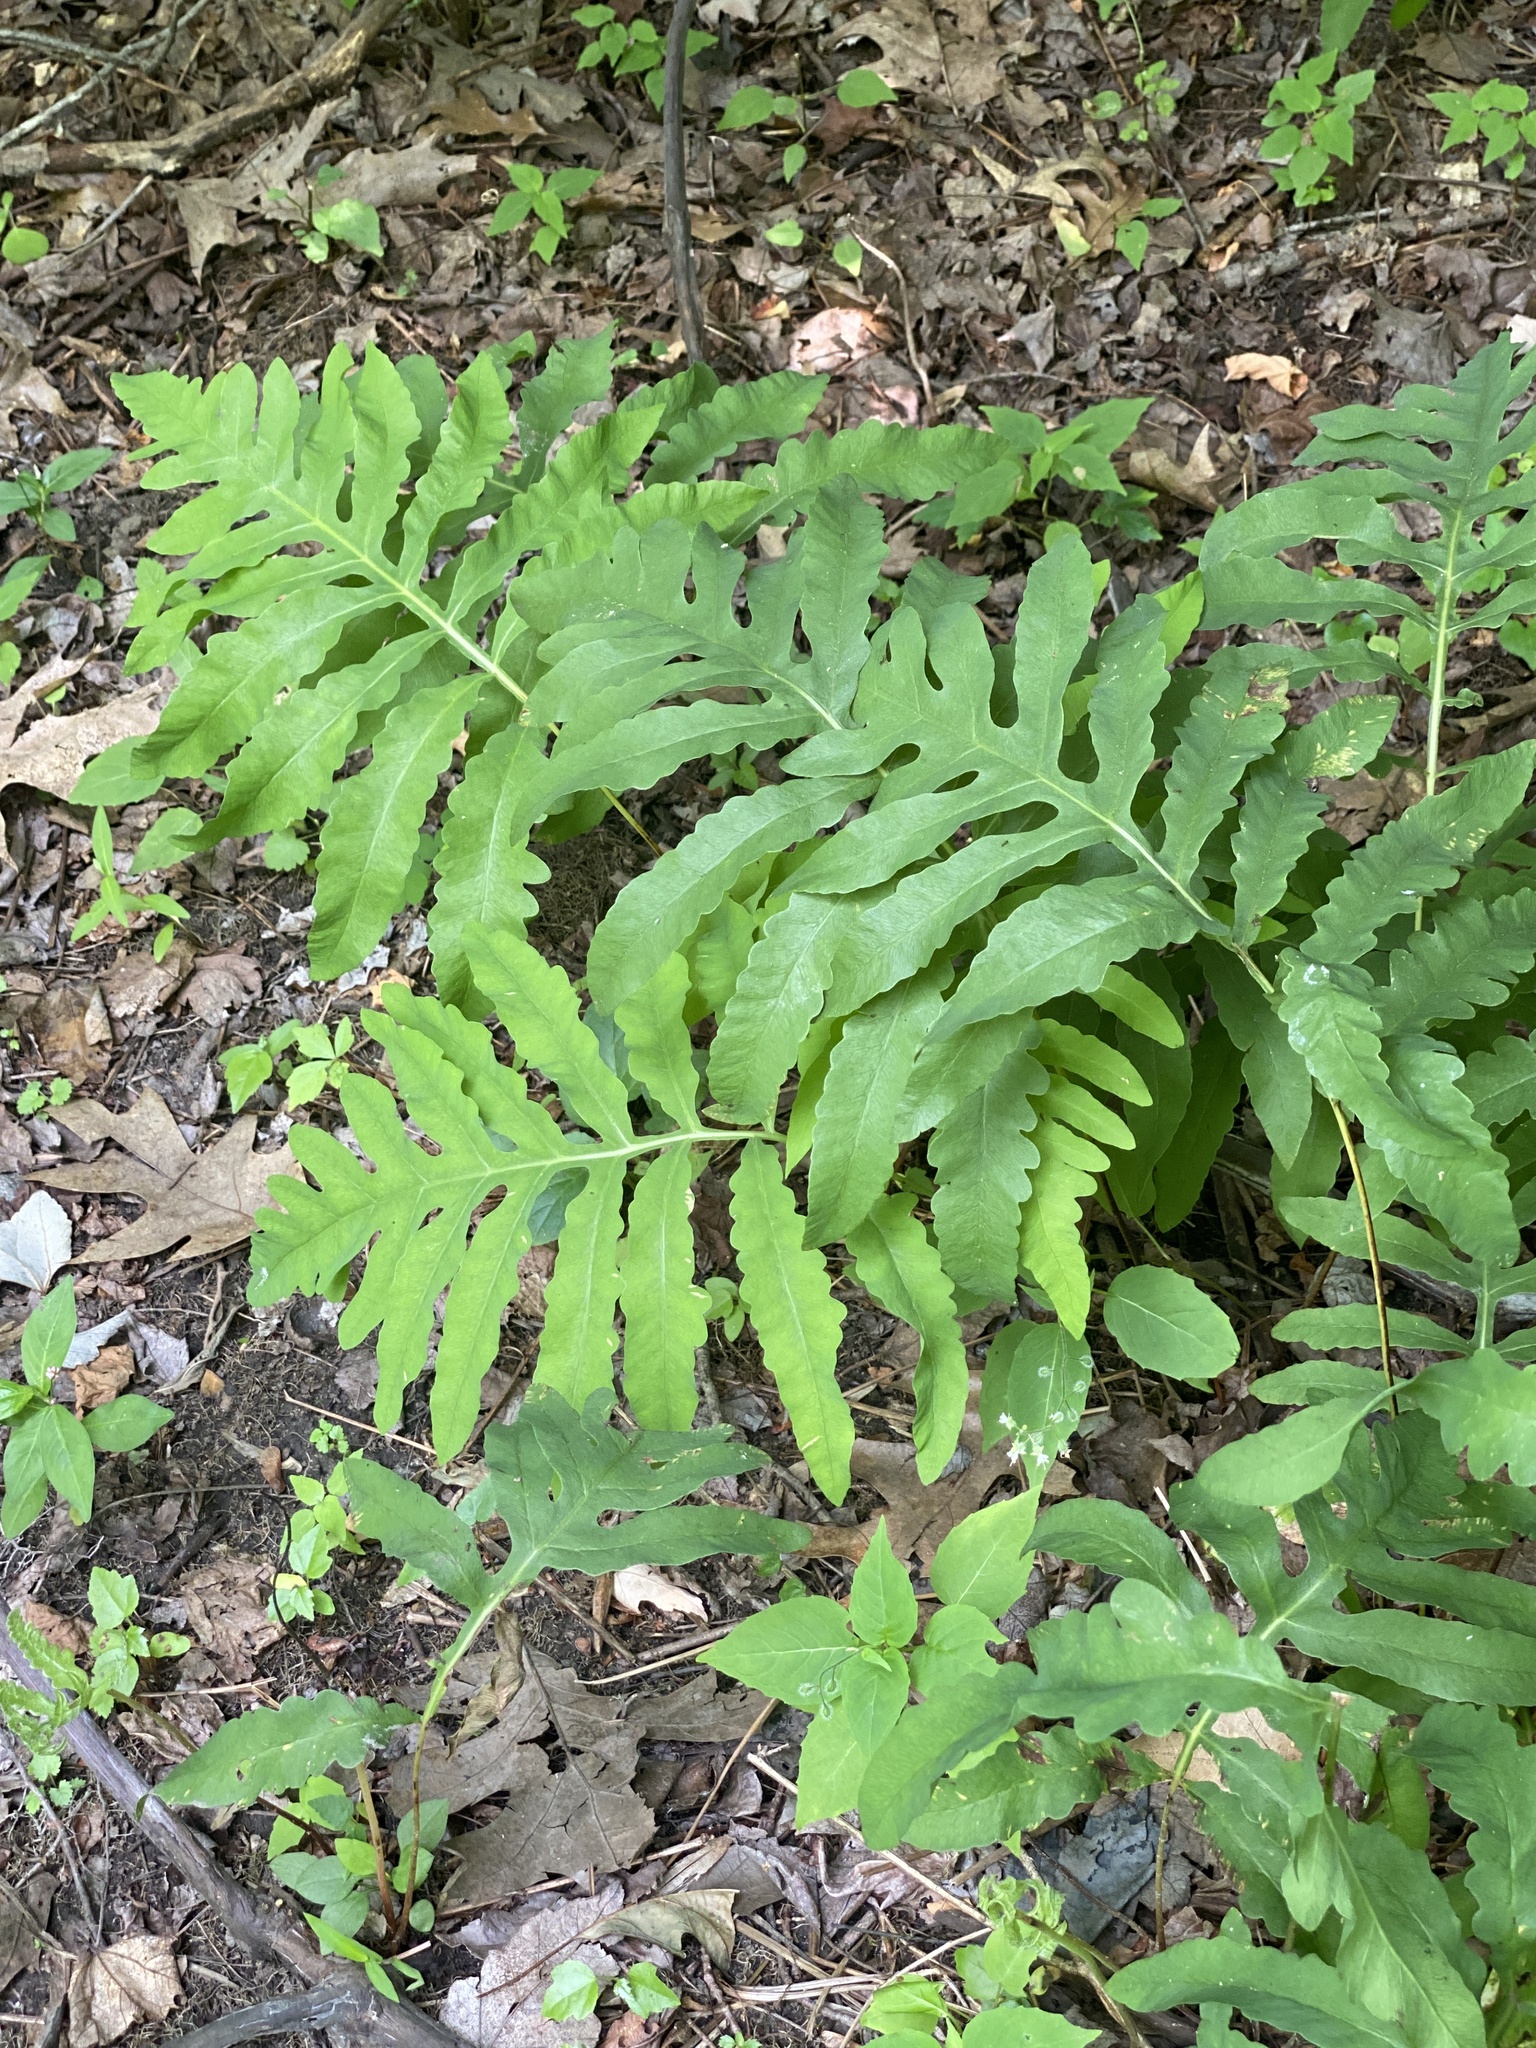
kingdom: Plantae
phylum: Tracheophyta
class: Polypodiopsida
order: Polypodiales
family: Onocleaceae
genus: Onoclea
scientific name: Onoclea sensibilis
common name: Sensitive fern
